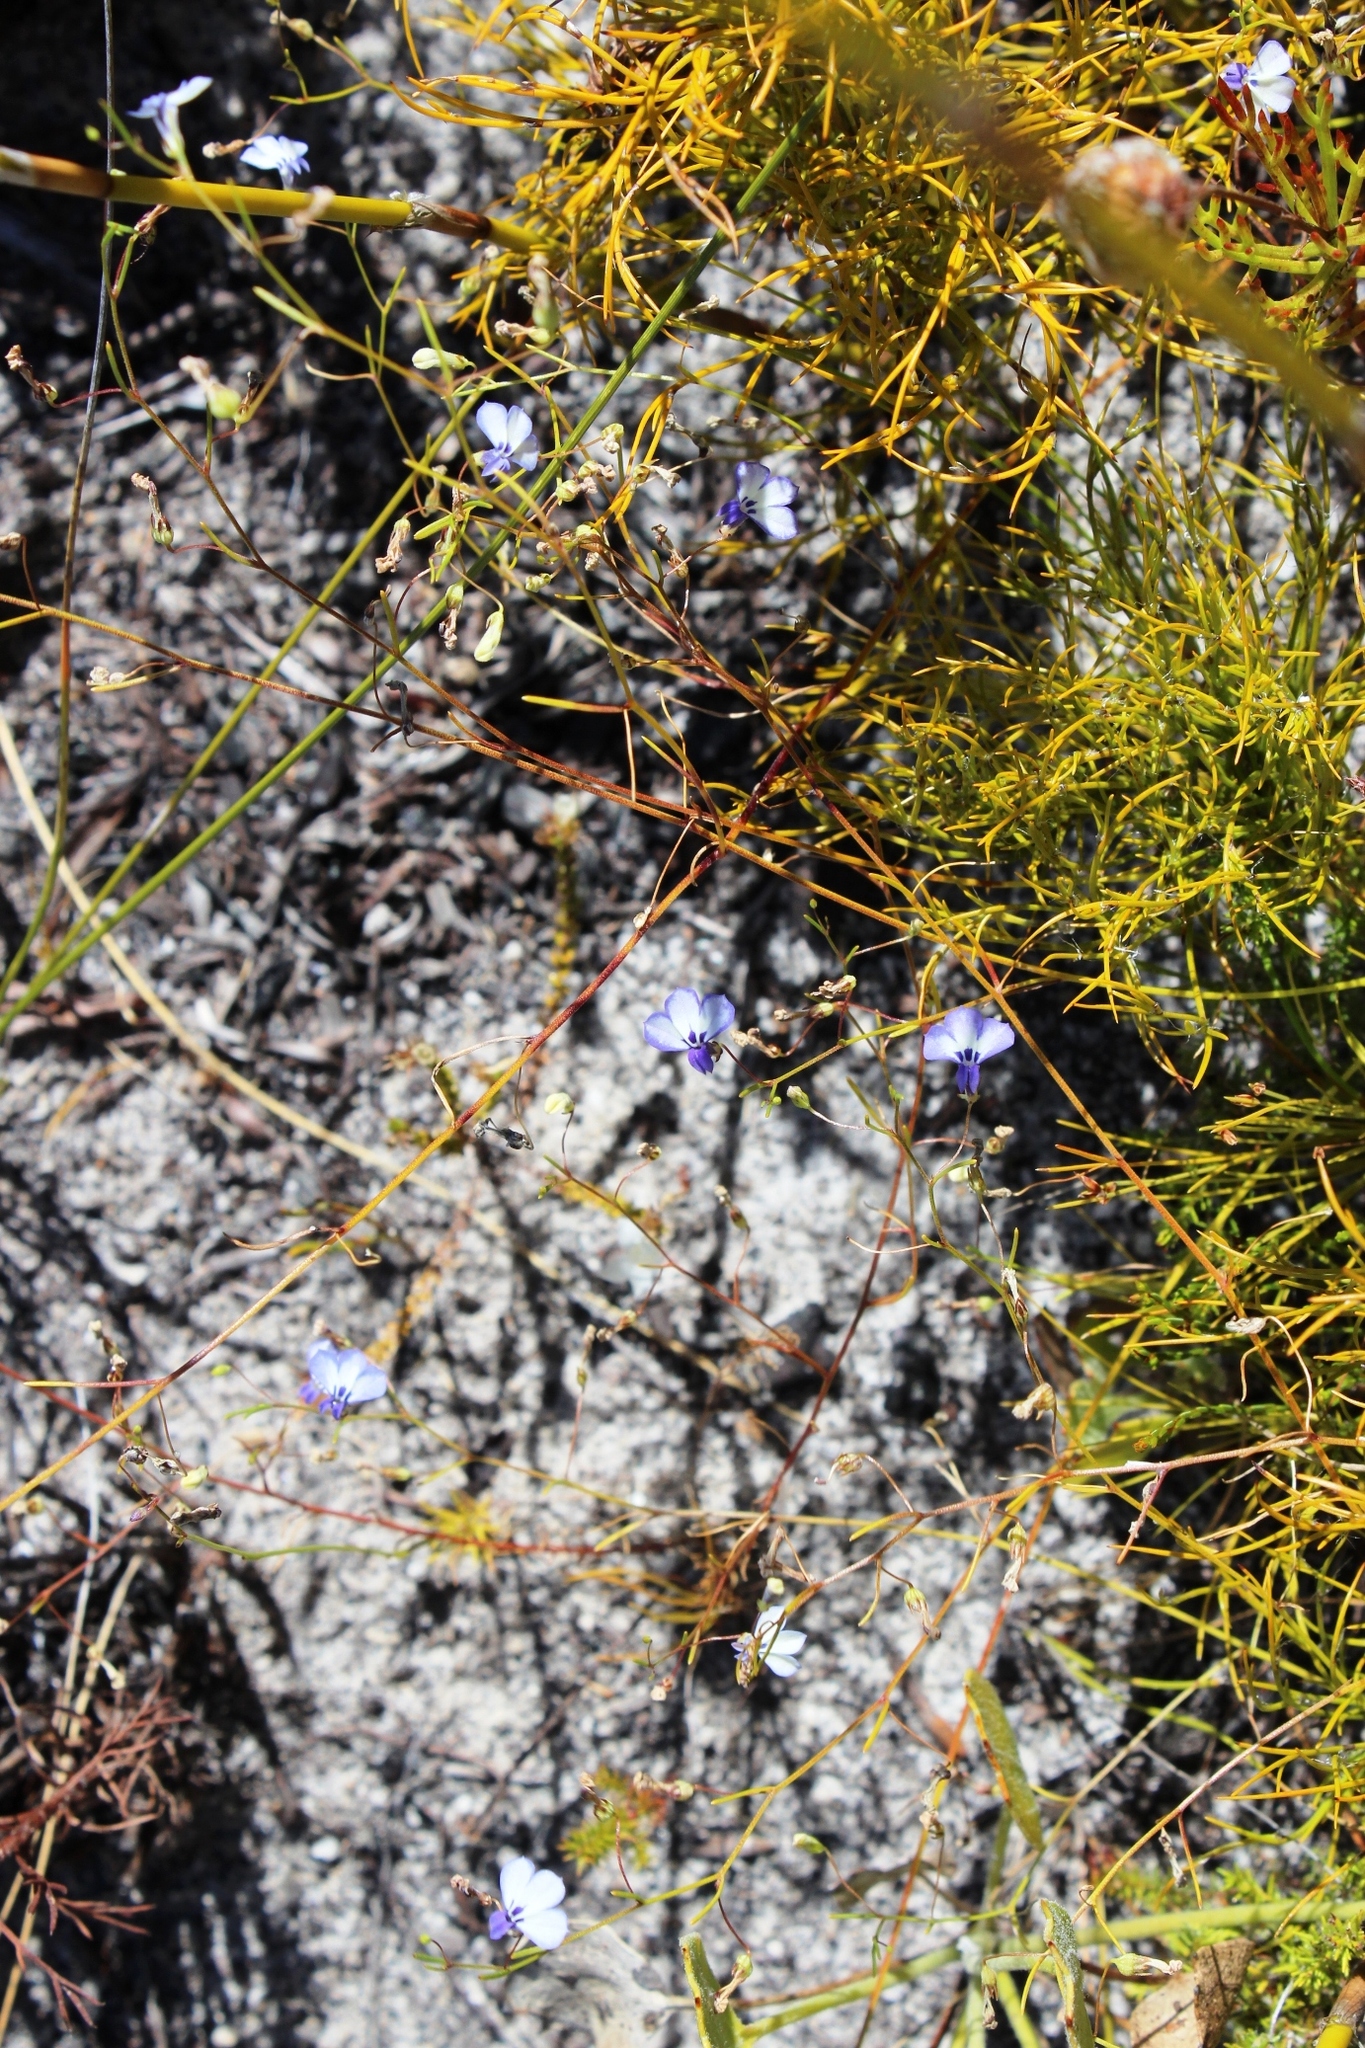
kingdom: Plantae
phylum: Tracheophyta
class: Magnoliopsida
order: Asterales
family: Campanulaceae
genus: Lobelia
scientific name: Lobelia setacea
